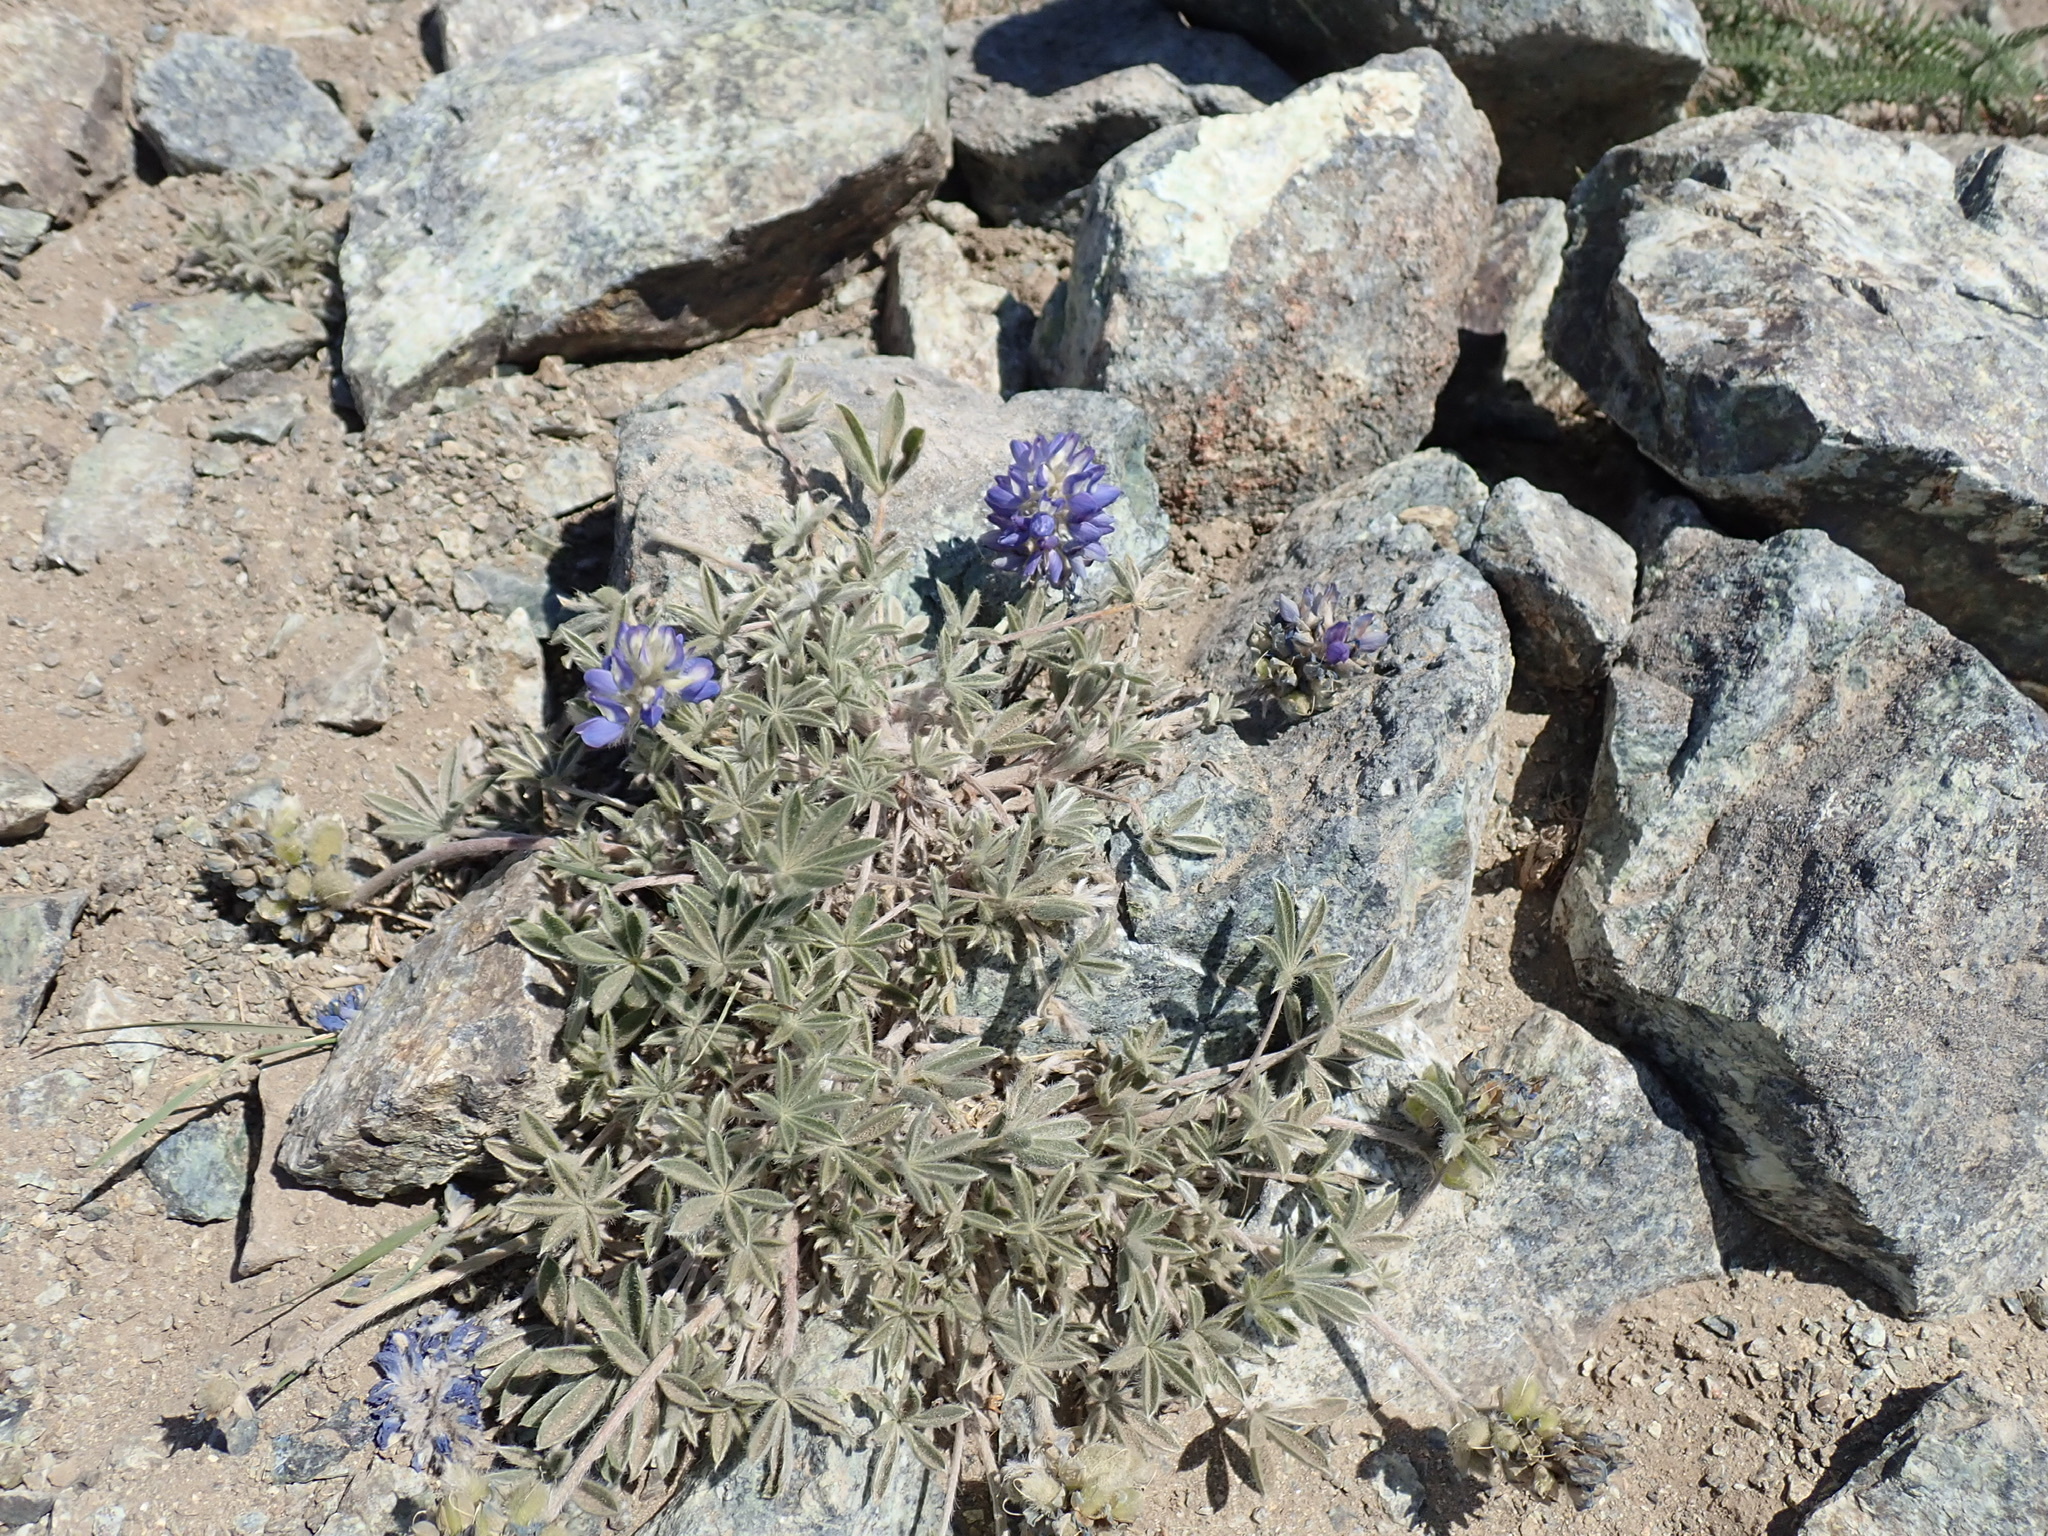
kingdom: Plantae
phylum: Tracheophyta
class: Magnoliopsida
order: Fabales
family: Fabaceae
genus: Lupinus
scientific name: Lupinus sellulus
